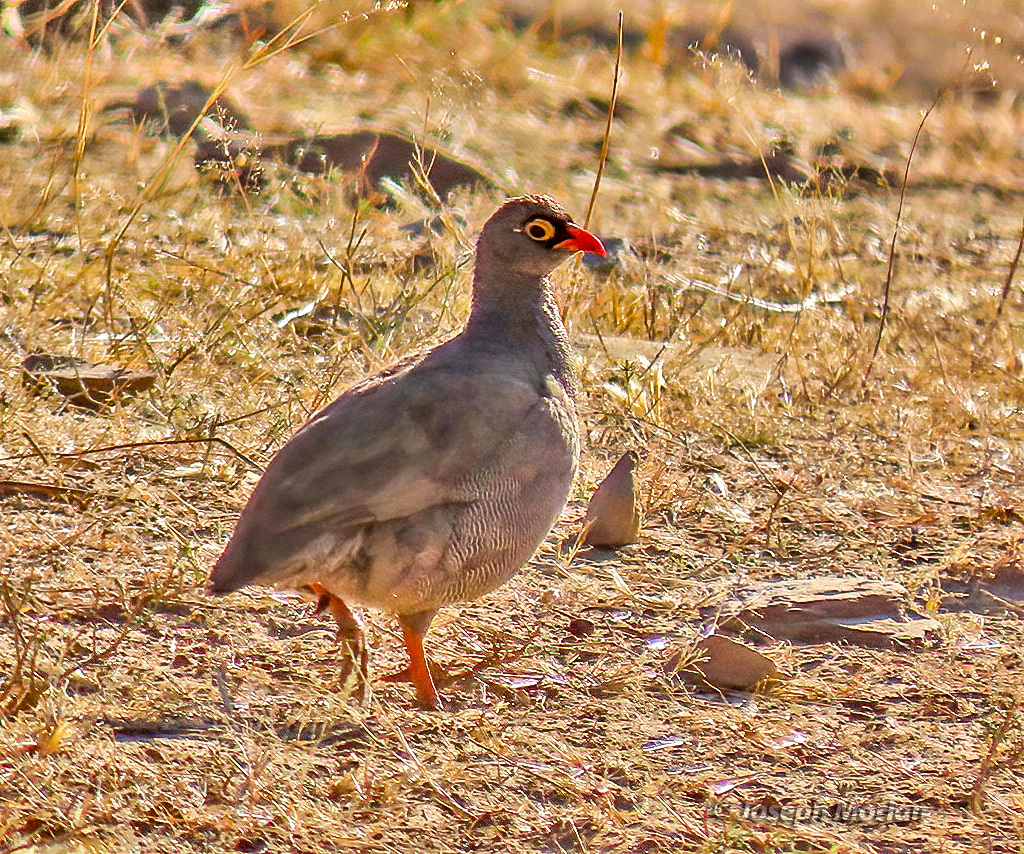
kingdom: Animalia
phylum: Chordata
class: Aves
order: Galliformes
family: Phasianidae
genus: Pternistis
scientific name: Pternistis adspersus
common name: Red-billed spurfowl
